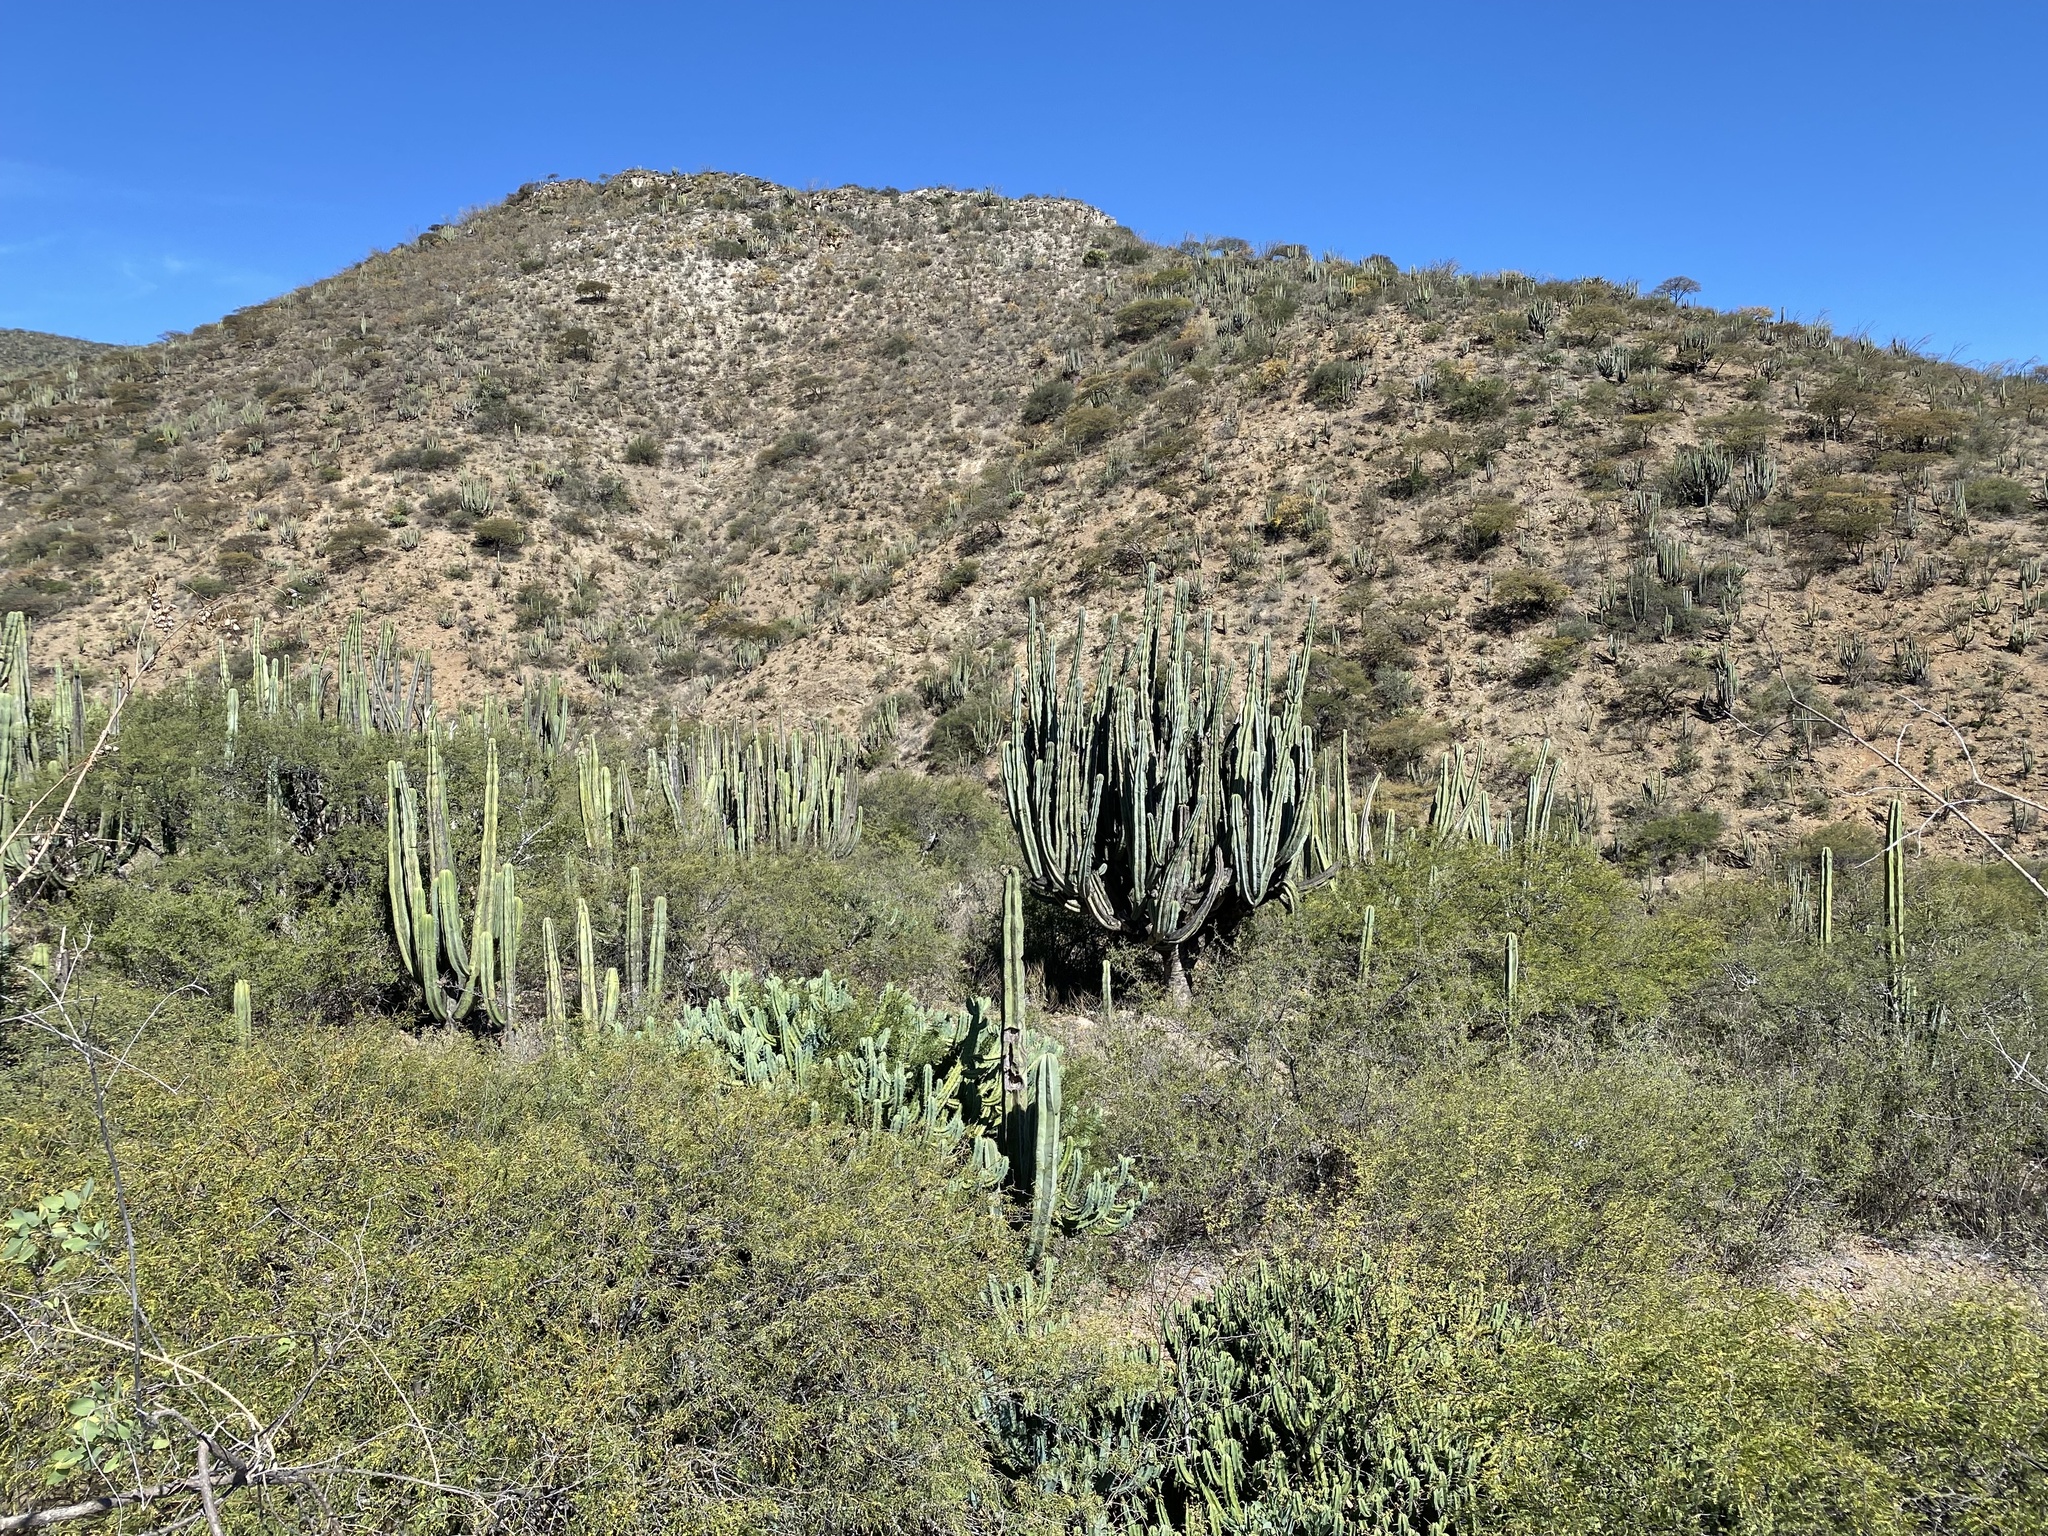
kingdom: Plantae
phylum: Tracheophyta
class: Magnoliopsida
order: Caryophyllales
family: Cactaceae
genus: Stenocereus
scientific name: Stenocereus dumortieri
